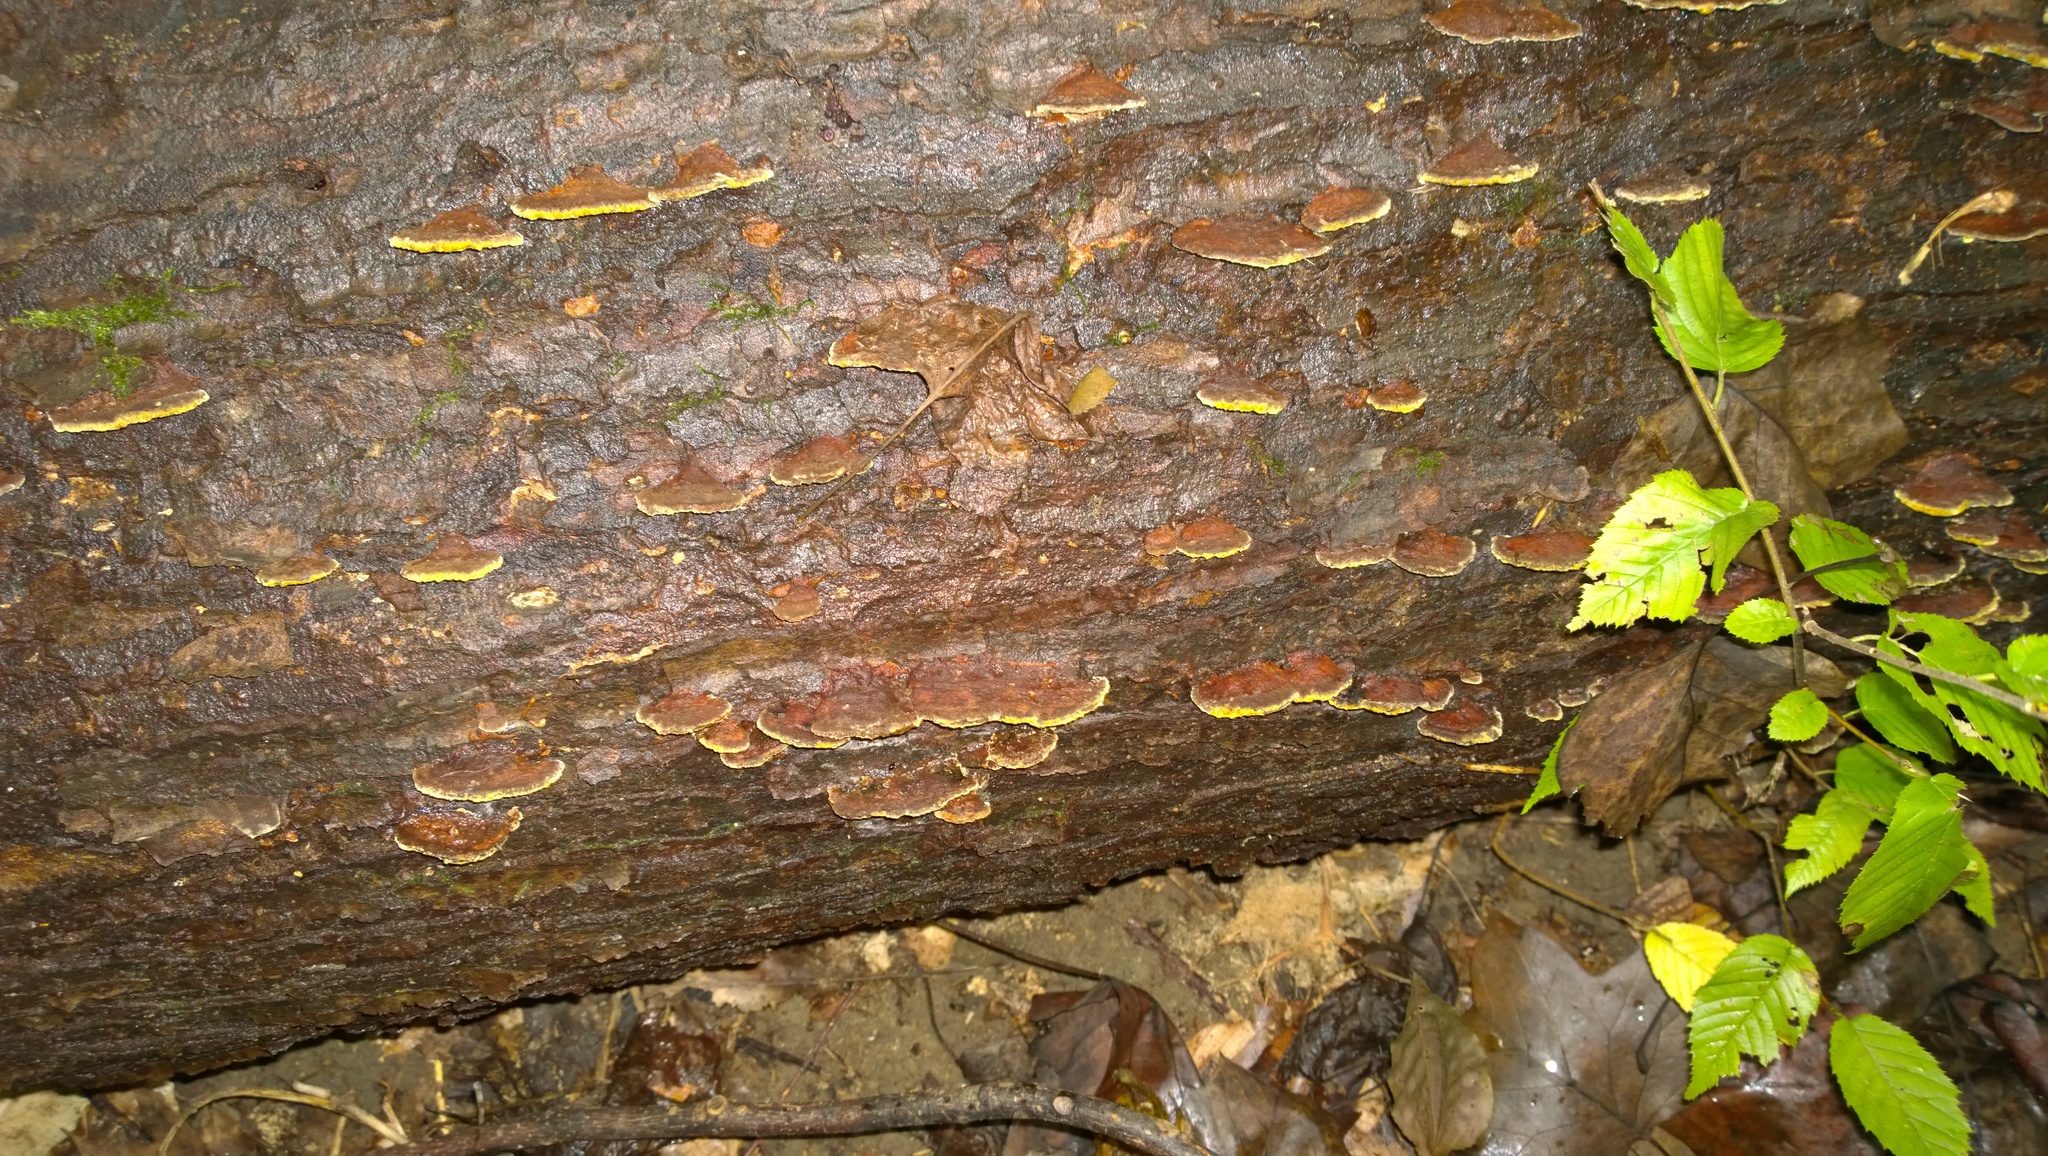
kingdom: Fungi
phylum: Basidiomycota
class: Agaricomycetes
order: Hymenochaetales
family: Hymenochaetaceae
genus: Phellinus
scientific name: Phellinus gilvus
